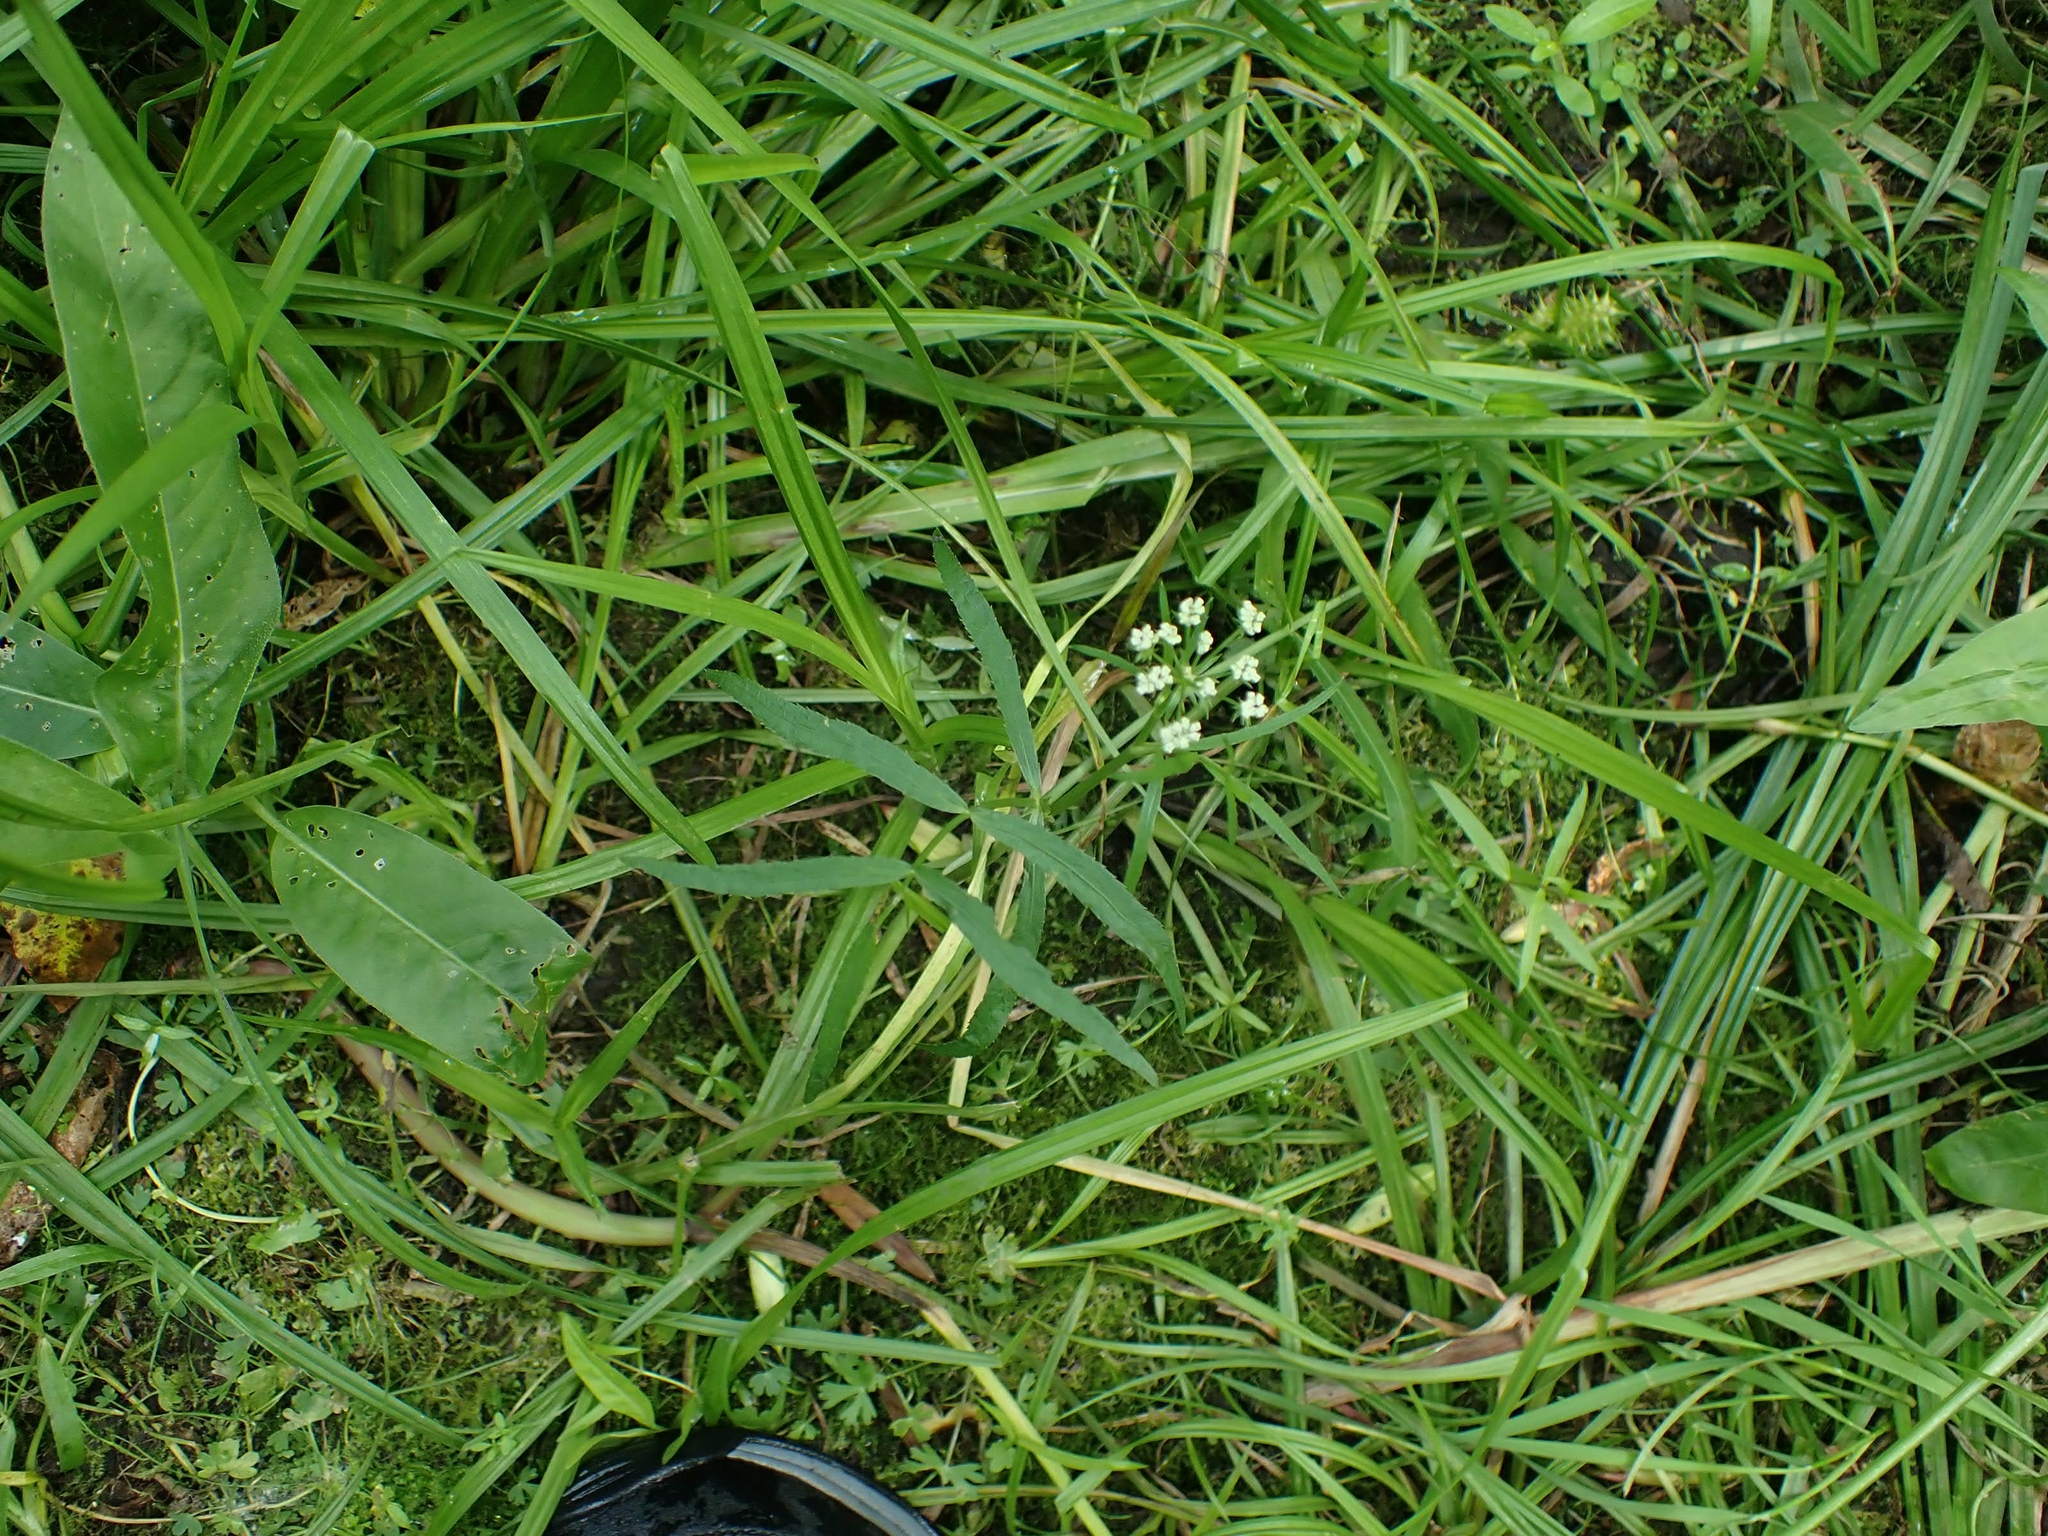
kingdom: Plantae
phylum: Tracheophyta
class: Magnoliopsida
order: Apiales
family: Apiaceae
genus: Sium
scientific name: Sium suave
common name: Hemlock water-parsnip
